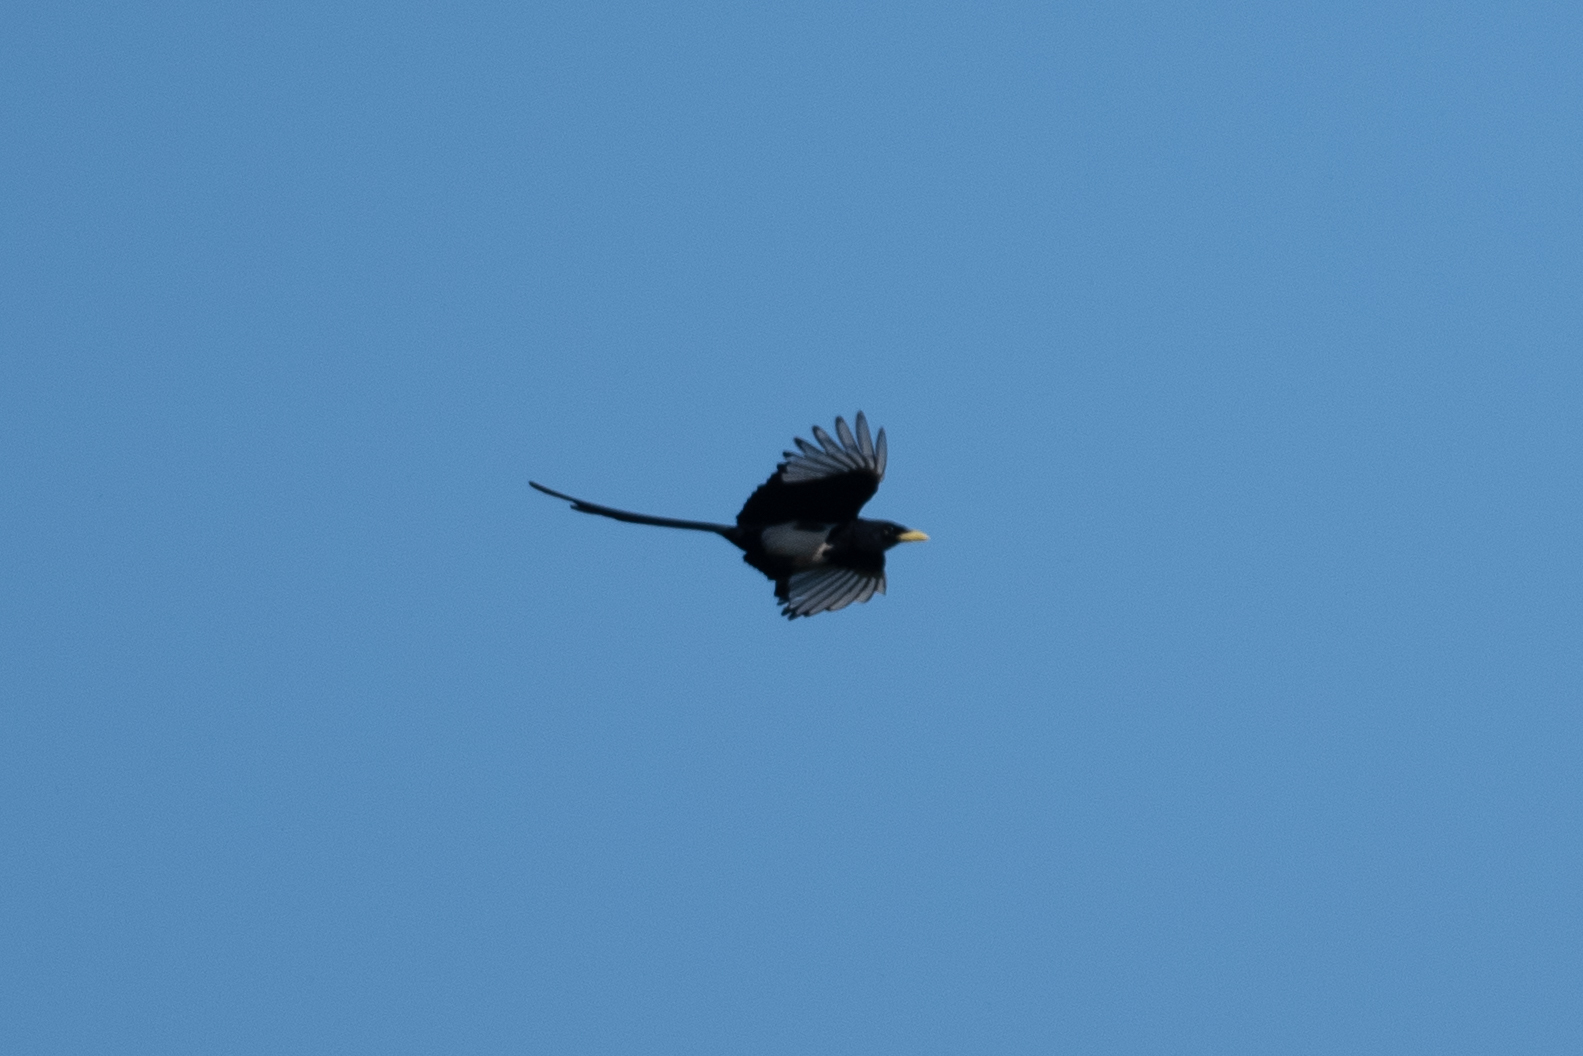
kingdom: Animalia
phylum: Chordata
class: Aves
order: Passeriformes
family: Corvidae
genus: Pica
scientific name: Pica nuttalli
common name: Yellow-billed magpie
